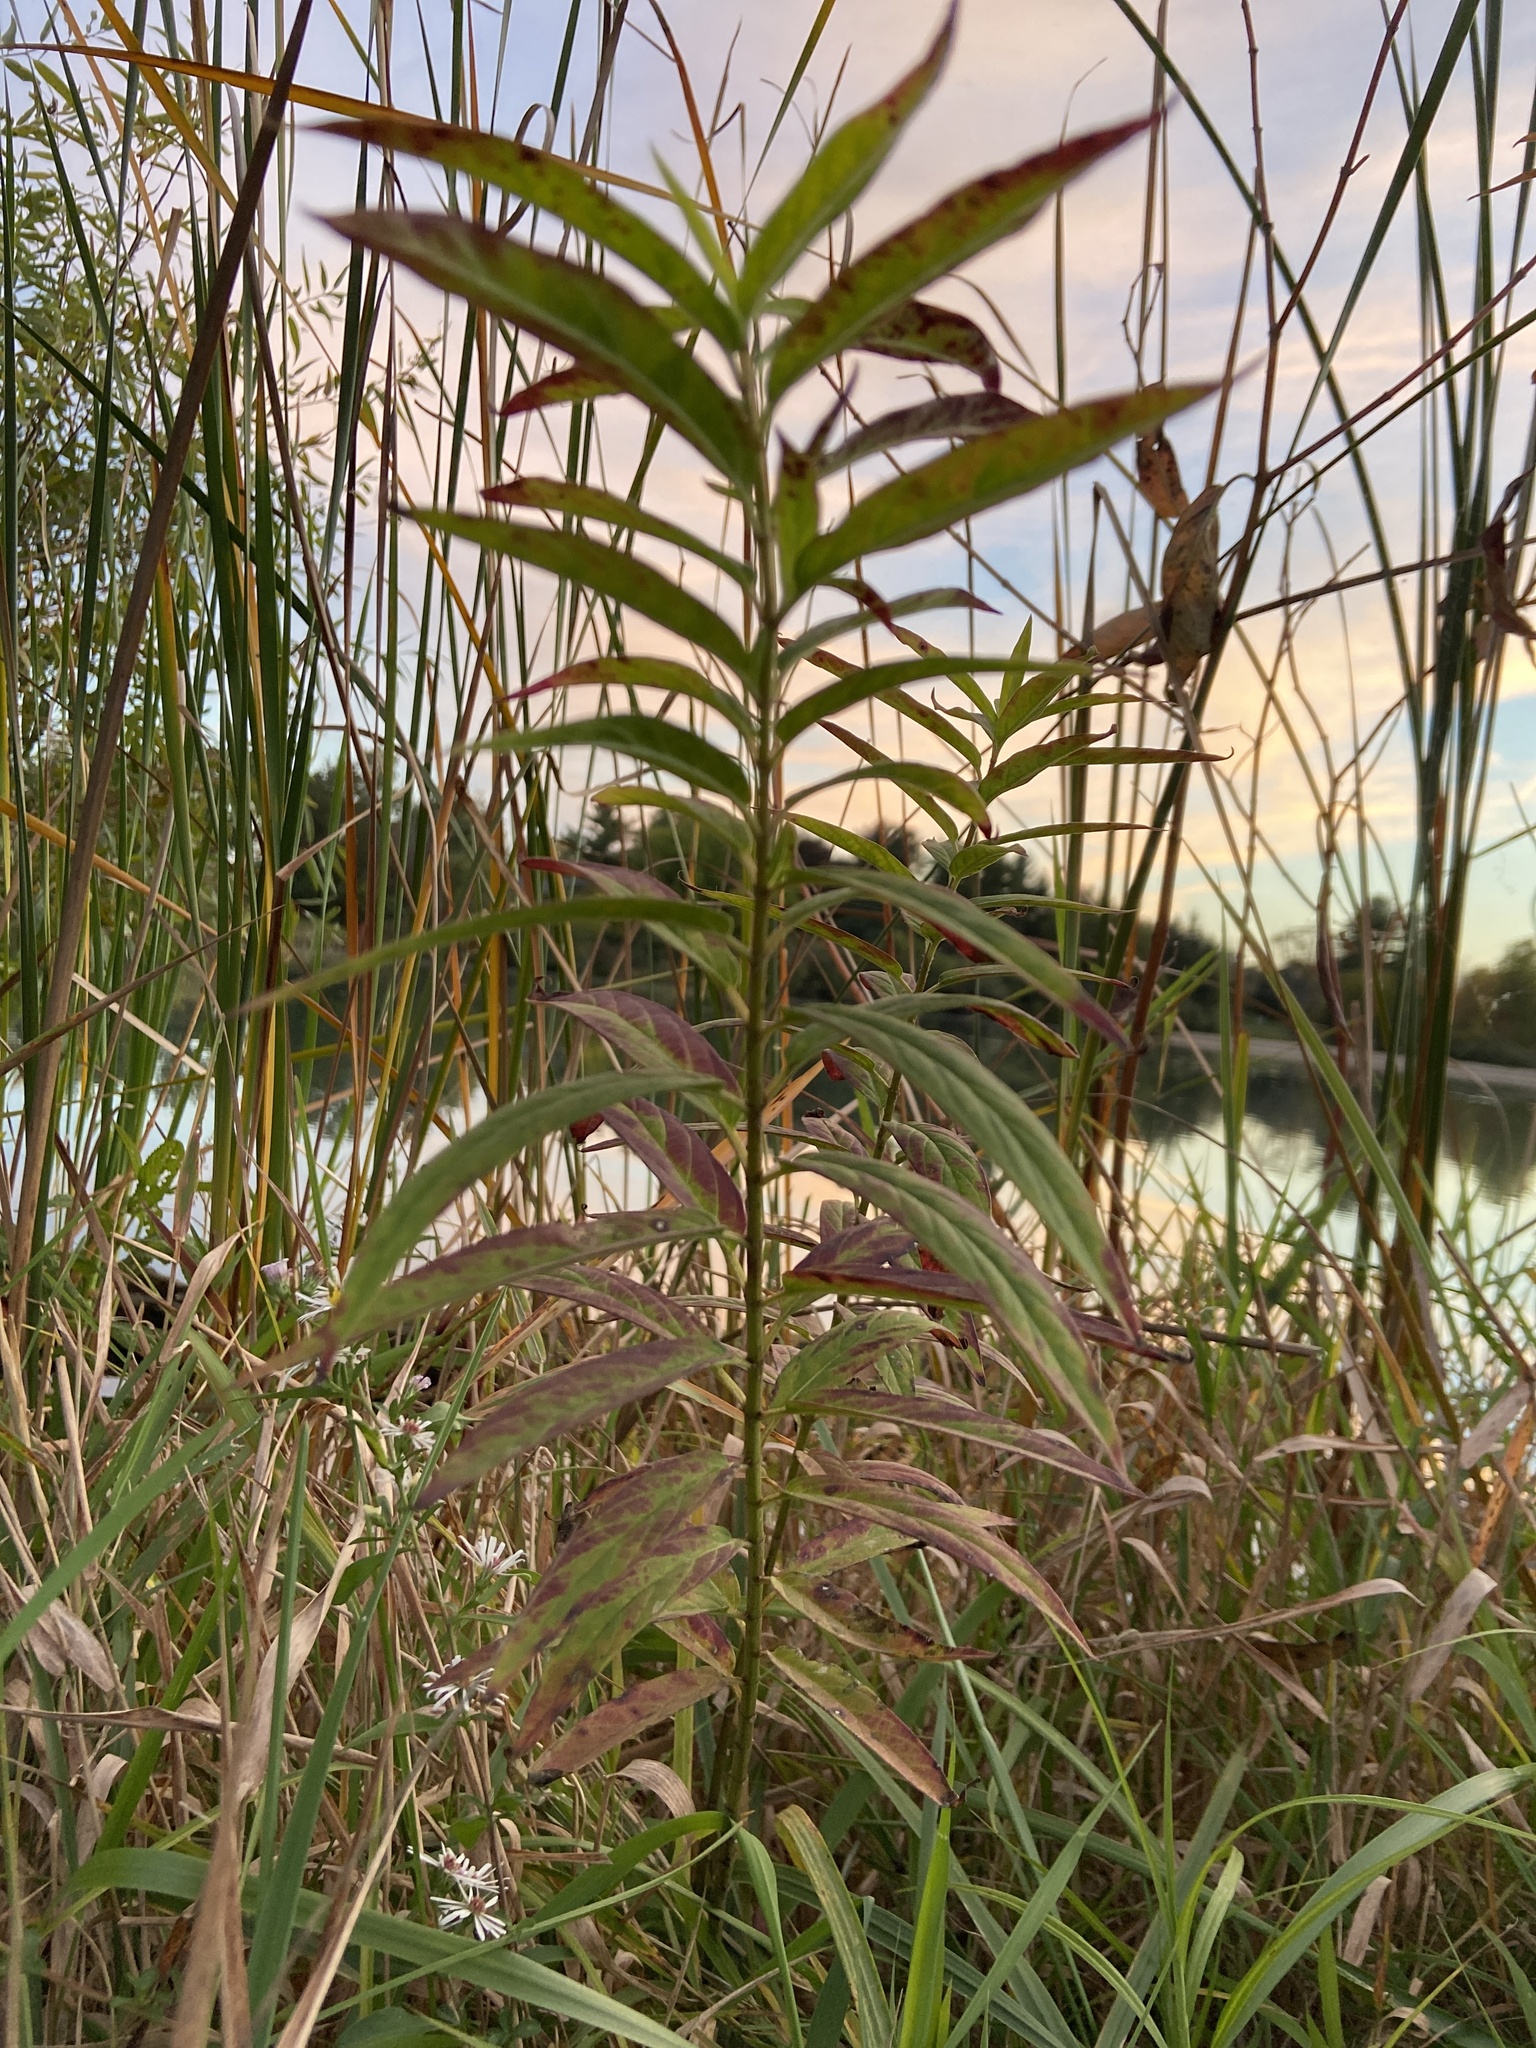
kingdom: Plantae
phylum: Tracheophyta
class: Magnoliopsida
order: Gentianales
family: Apocynaceae
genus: Asclepias
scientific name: Asclepias incarnata
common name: Swamp milkweed
